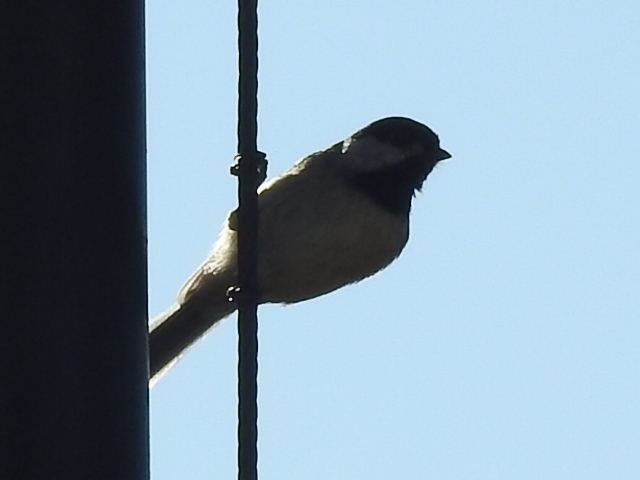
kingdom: Animalia
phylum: Chordata
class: Aves
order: Passeriformes
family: Paridae
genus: Poecile
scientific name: Poecile carolinensis
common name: Carolina chickadee
